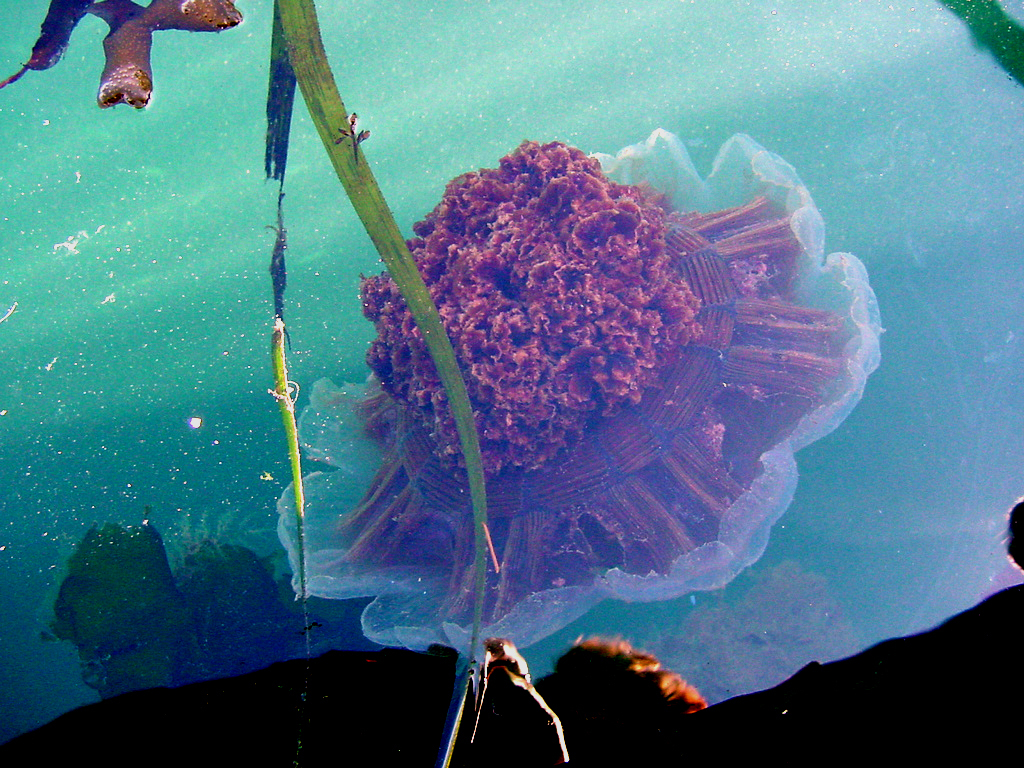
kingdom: Animalia
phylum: Cnidaria
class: Scyphozoa
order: Semaeostomeae
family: Cyaneidae
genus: Cyanea
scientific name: Cyanea ferruginea
